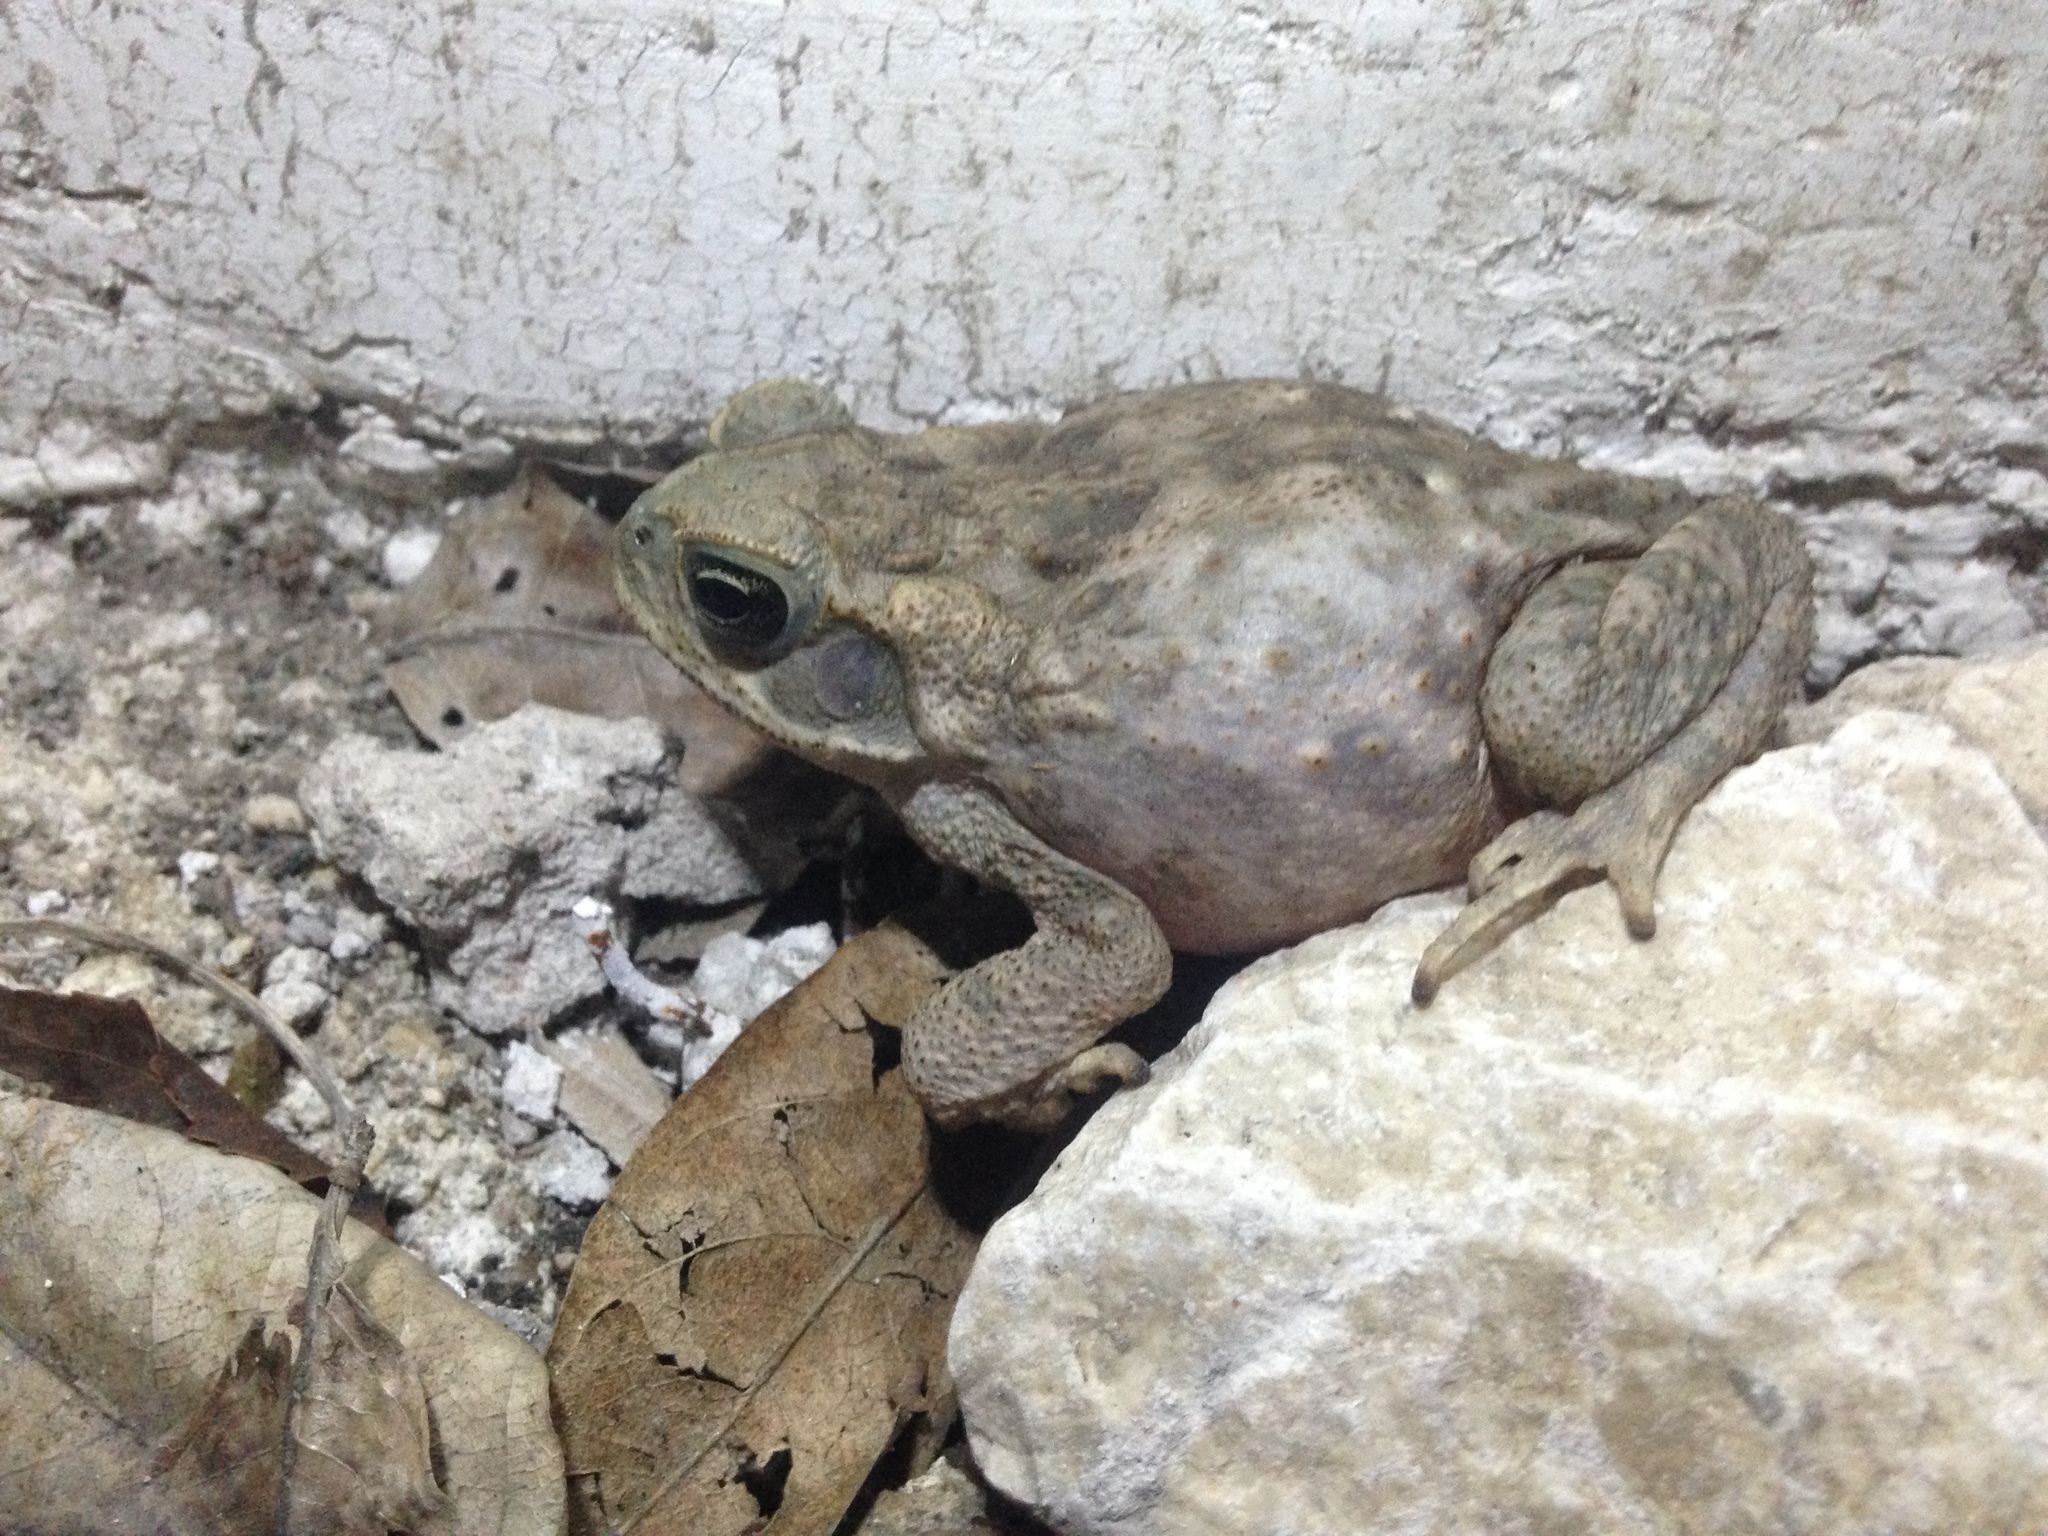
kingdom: Animalia
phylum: Chordata
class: Amphibia
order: Anura
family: Bufonidae
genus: Rhinella
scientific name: Rhinella horribilis
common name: Mesoamerican cane toad
